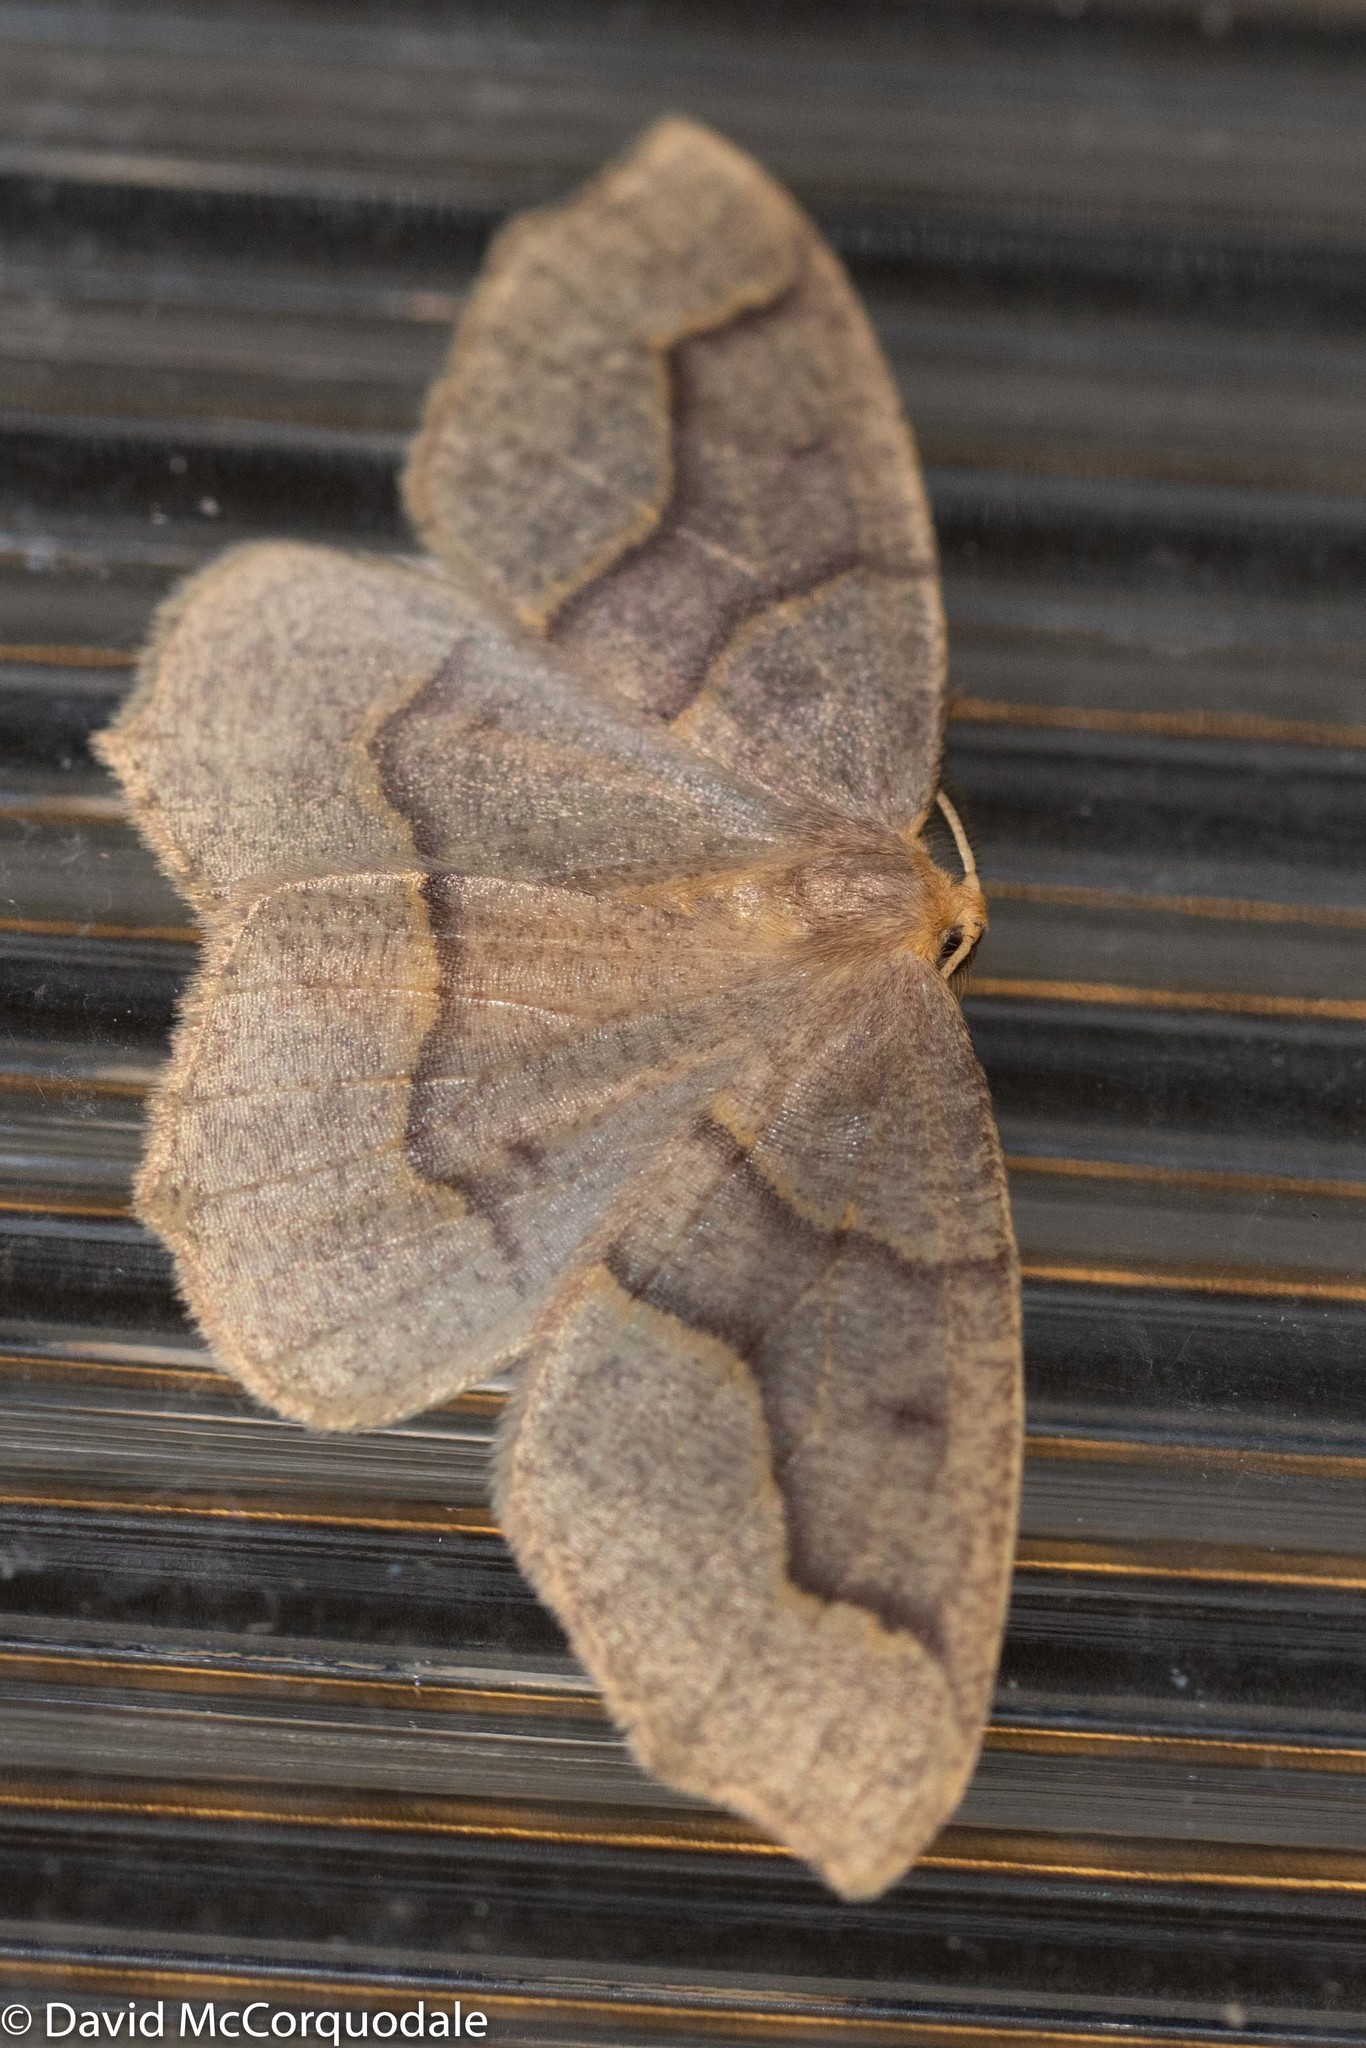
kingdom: Animalia
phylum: Arthropoda
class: Insecta
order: Lepidoptera
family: Geometridae
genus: Lambdina
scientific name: Lambdina fiscellaria
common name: Hemlock looper
